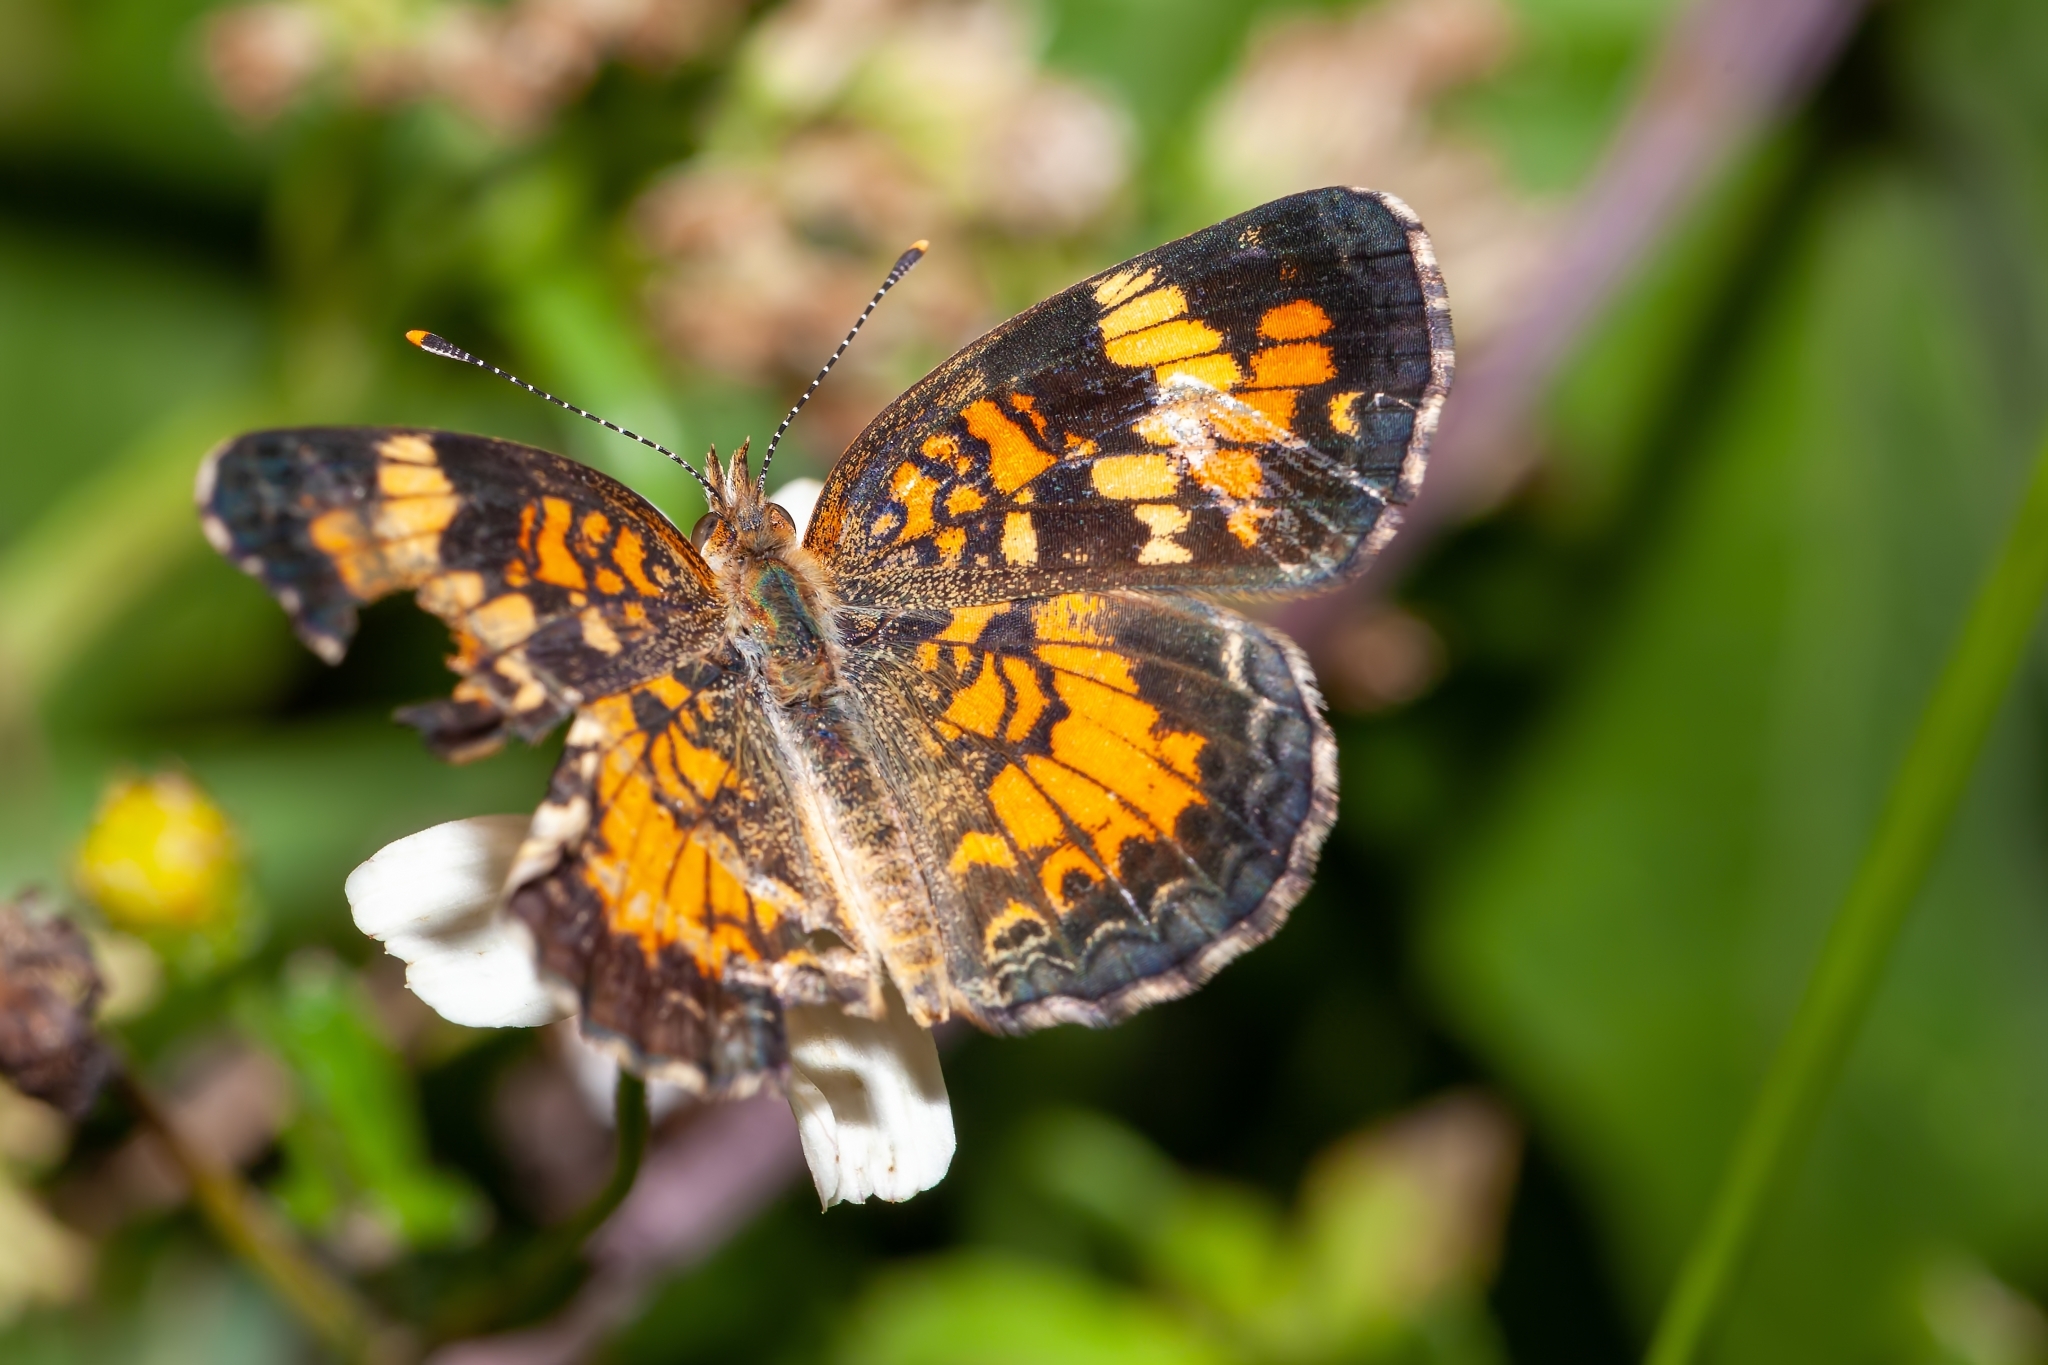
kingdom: Animalia
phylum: Arthropoda
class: Insecta
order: Lepidoptera
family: Nymphalidae
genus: Phyciodes
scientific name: Phyciodes phaon
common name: Phaon crescent
